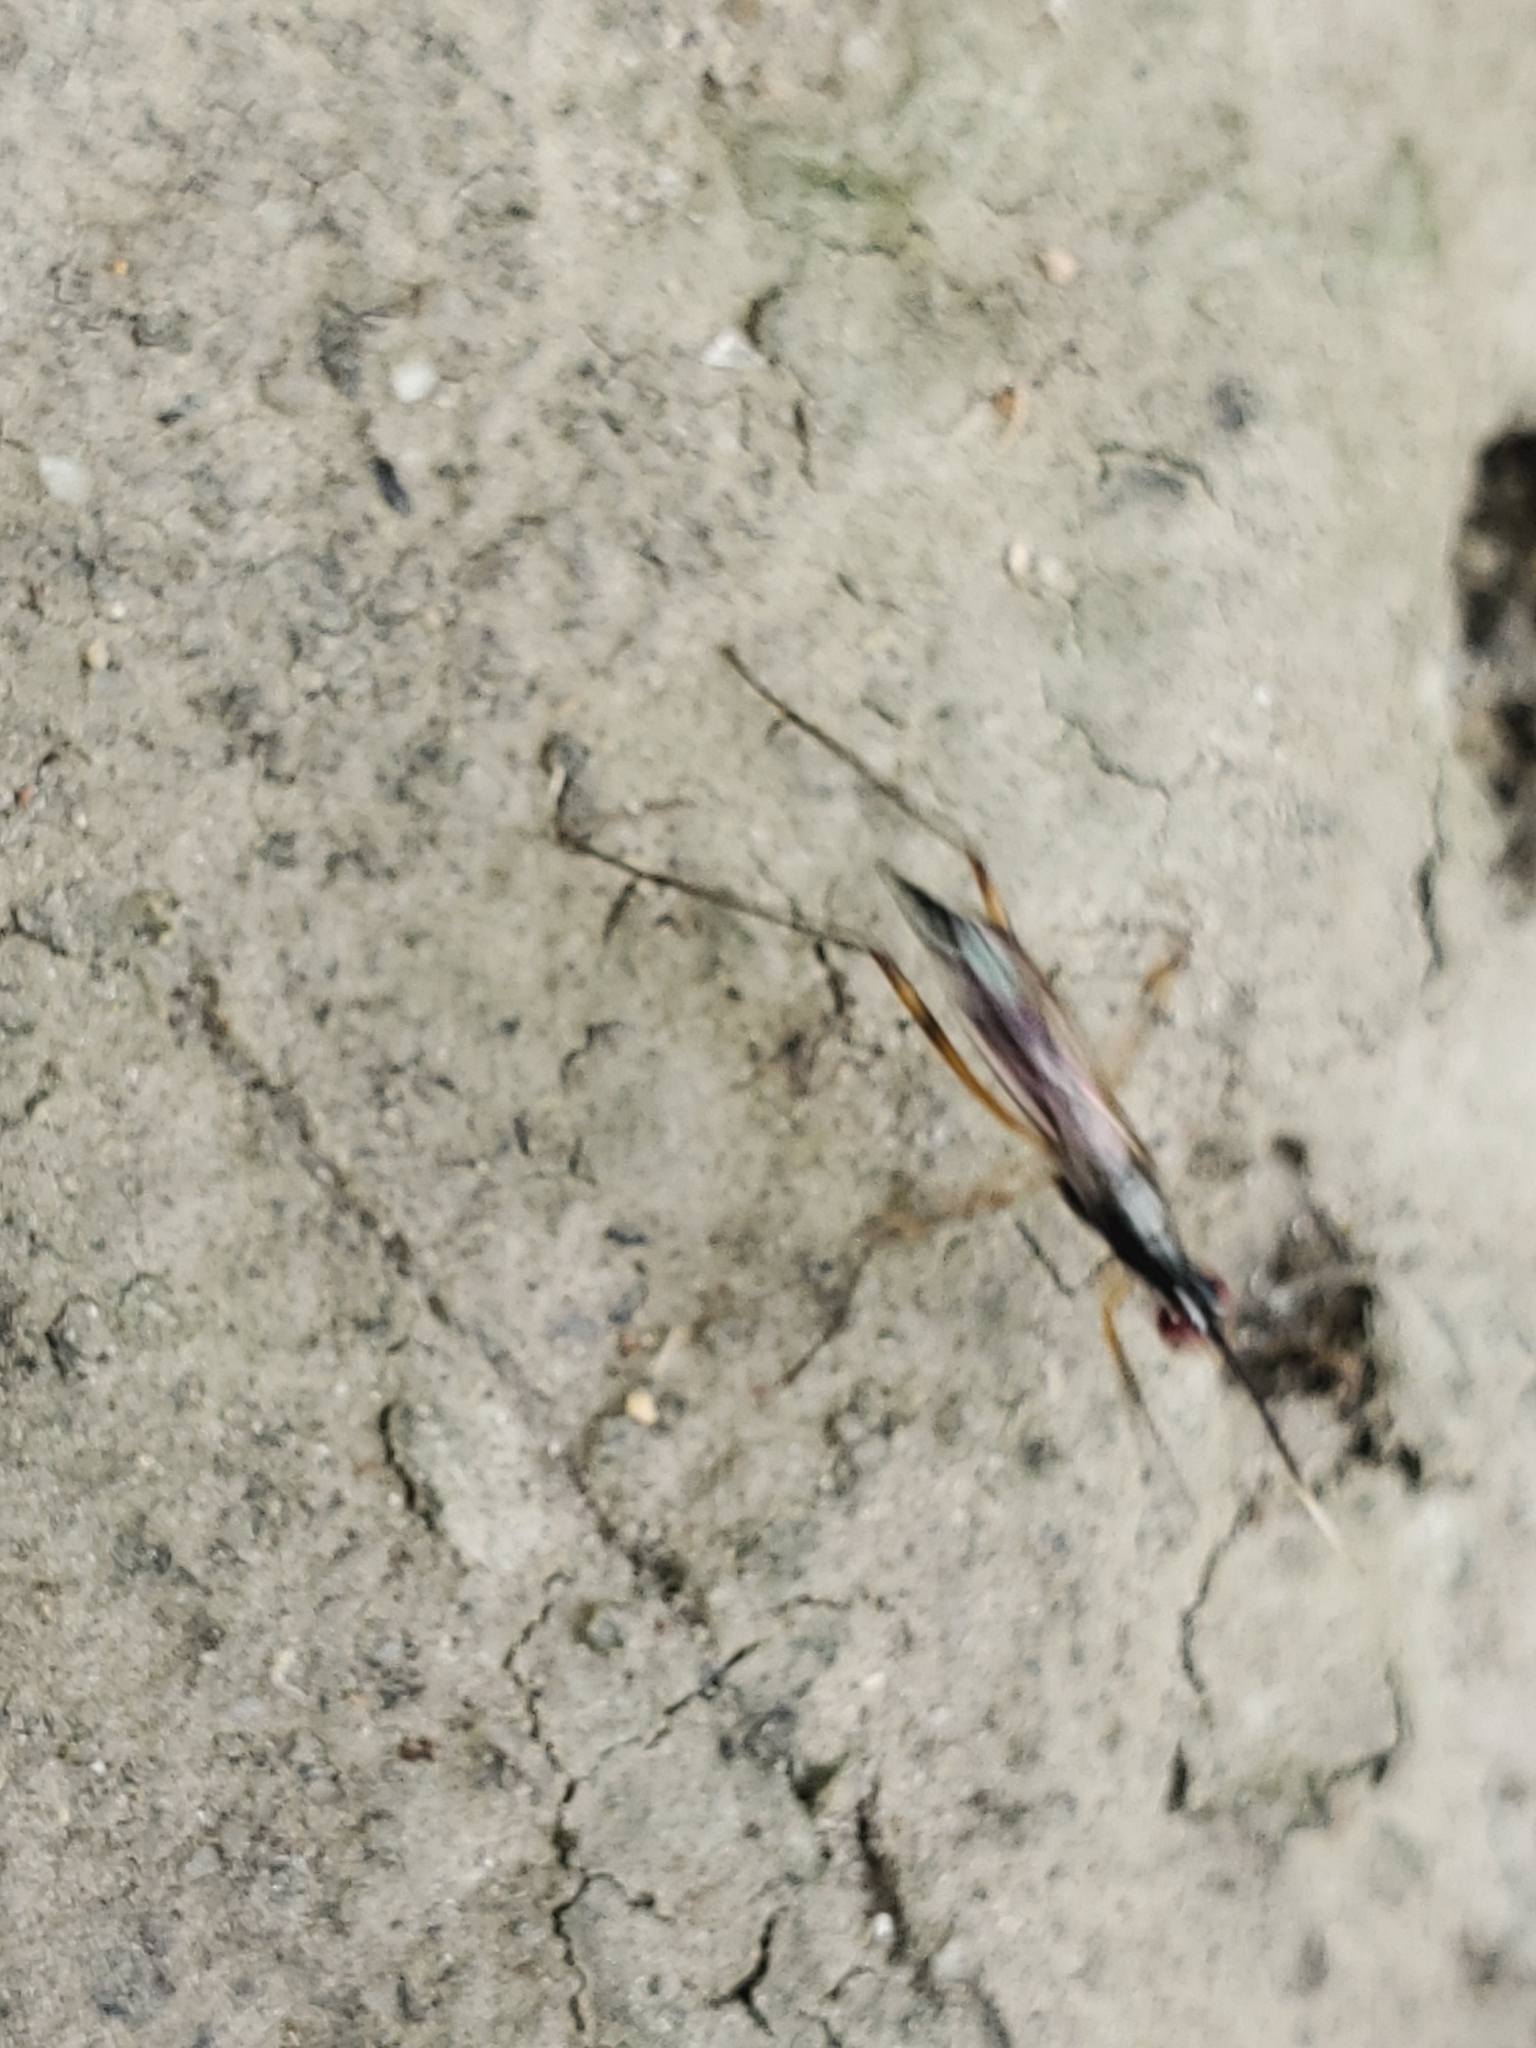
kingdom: Animalia
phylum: Arthropoda
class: Insecta
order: Diptera
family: Micropezidae
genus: Rainieria
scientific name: Rainieria antennaepes
